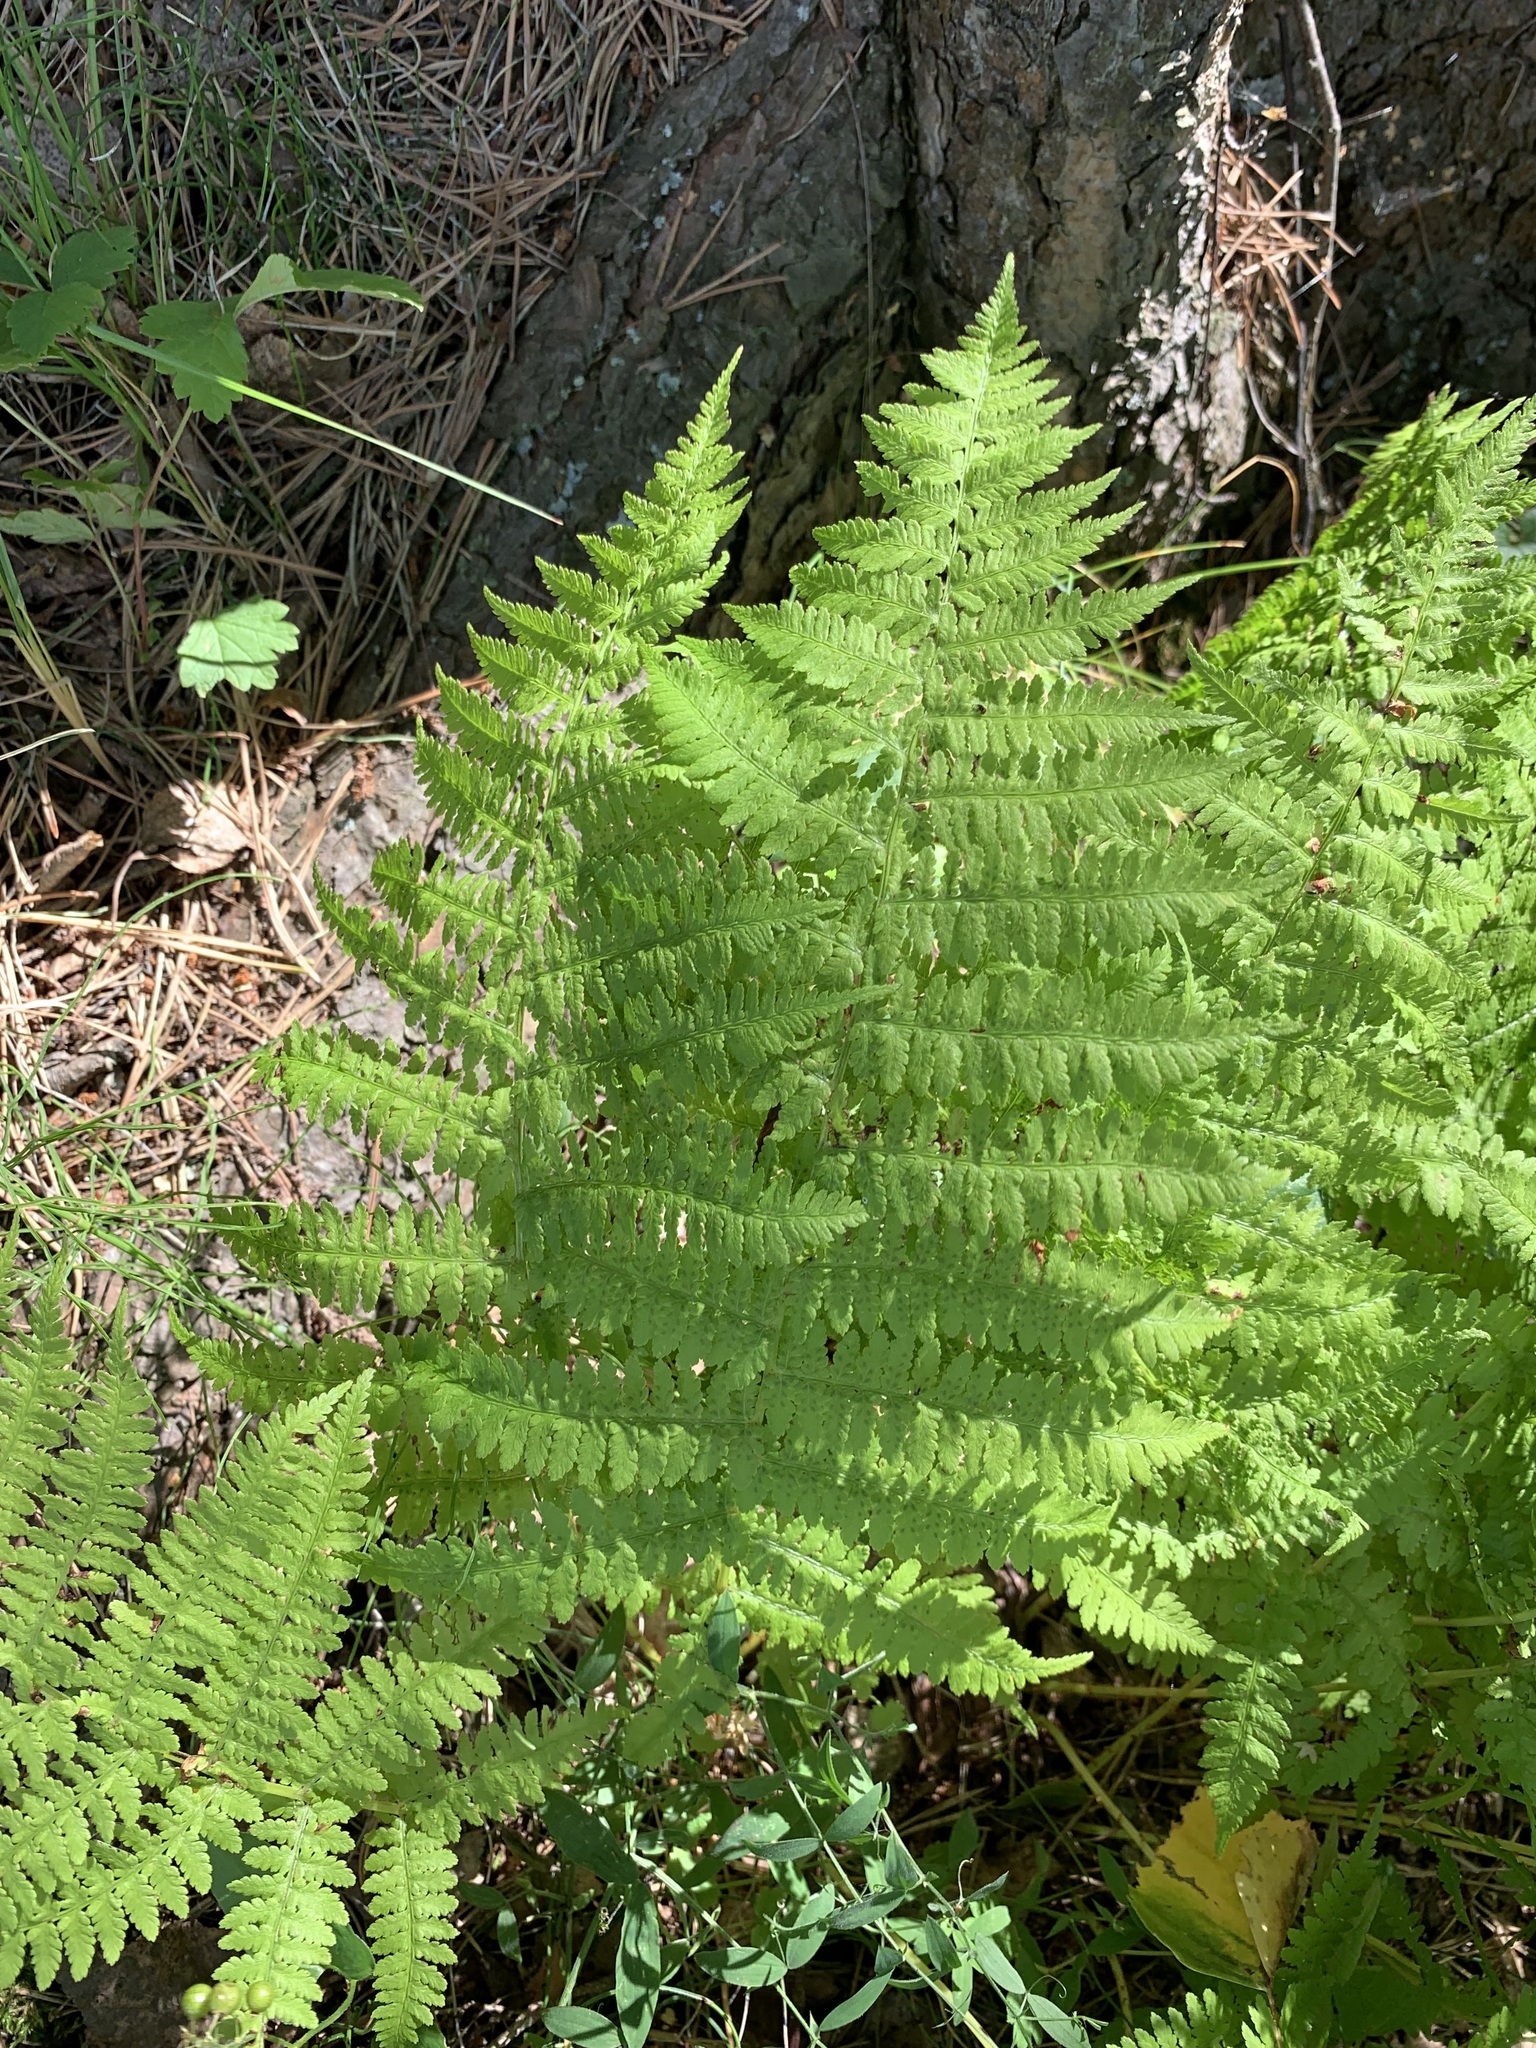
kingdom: Plantae
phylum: Tracheophyta
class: Polypodiopsida
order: Polypodiales
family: Athyriaceae
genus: Athyrium
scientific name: Athyrium filix-femina
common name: Lady fern
